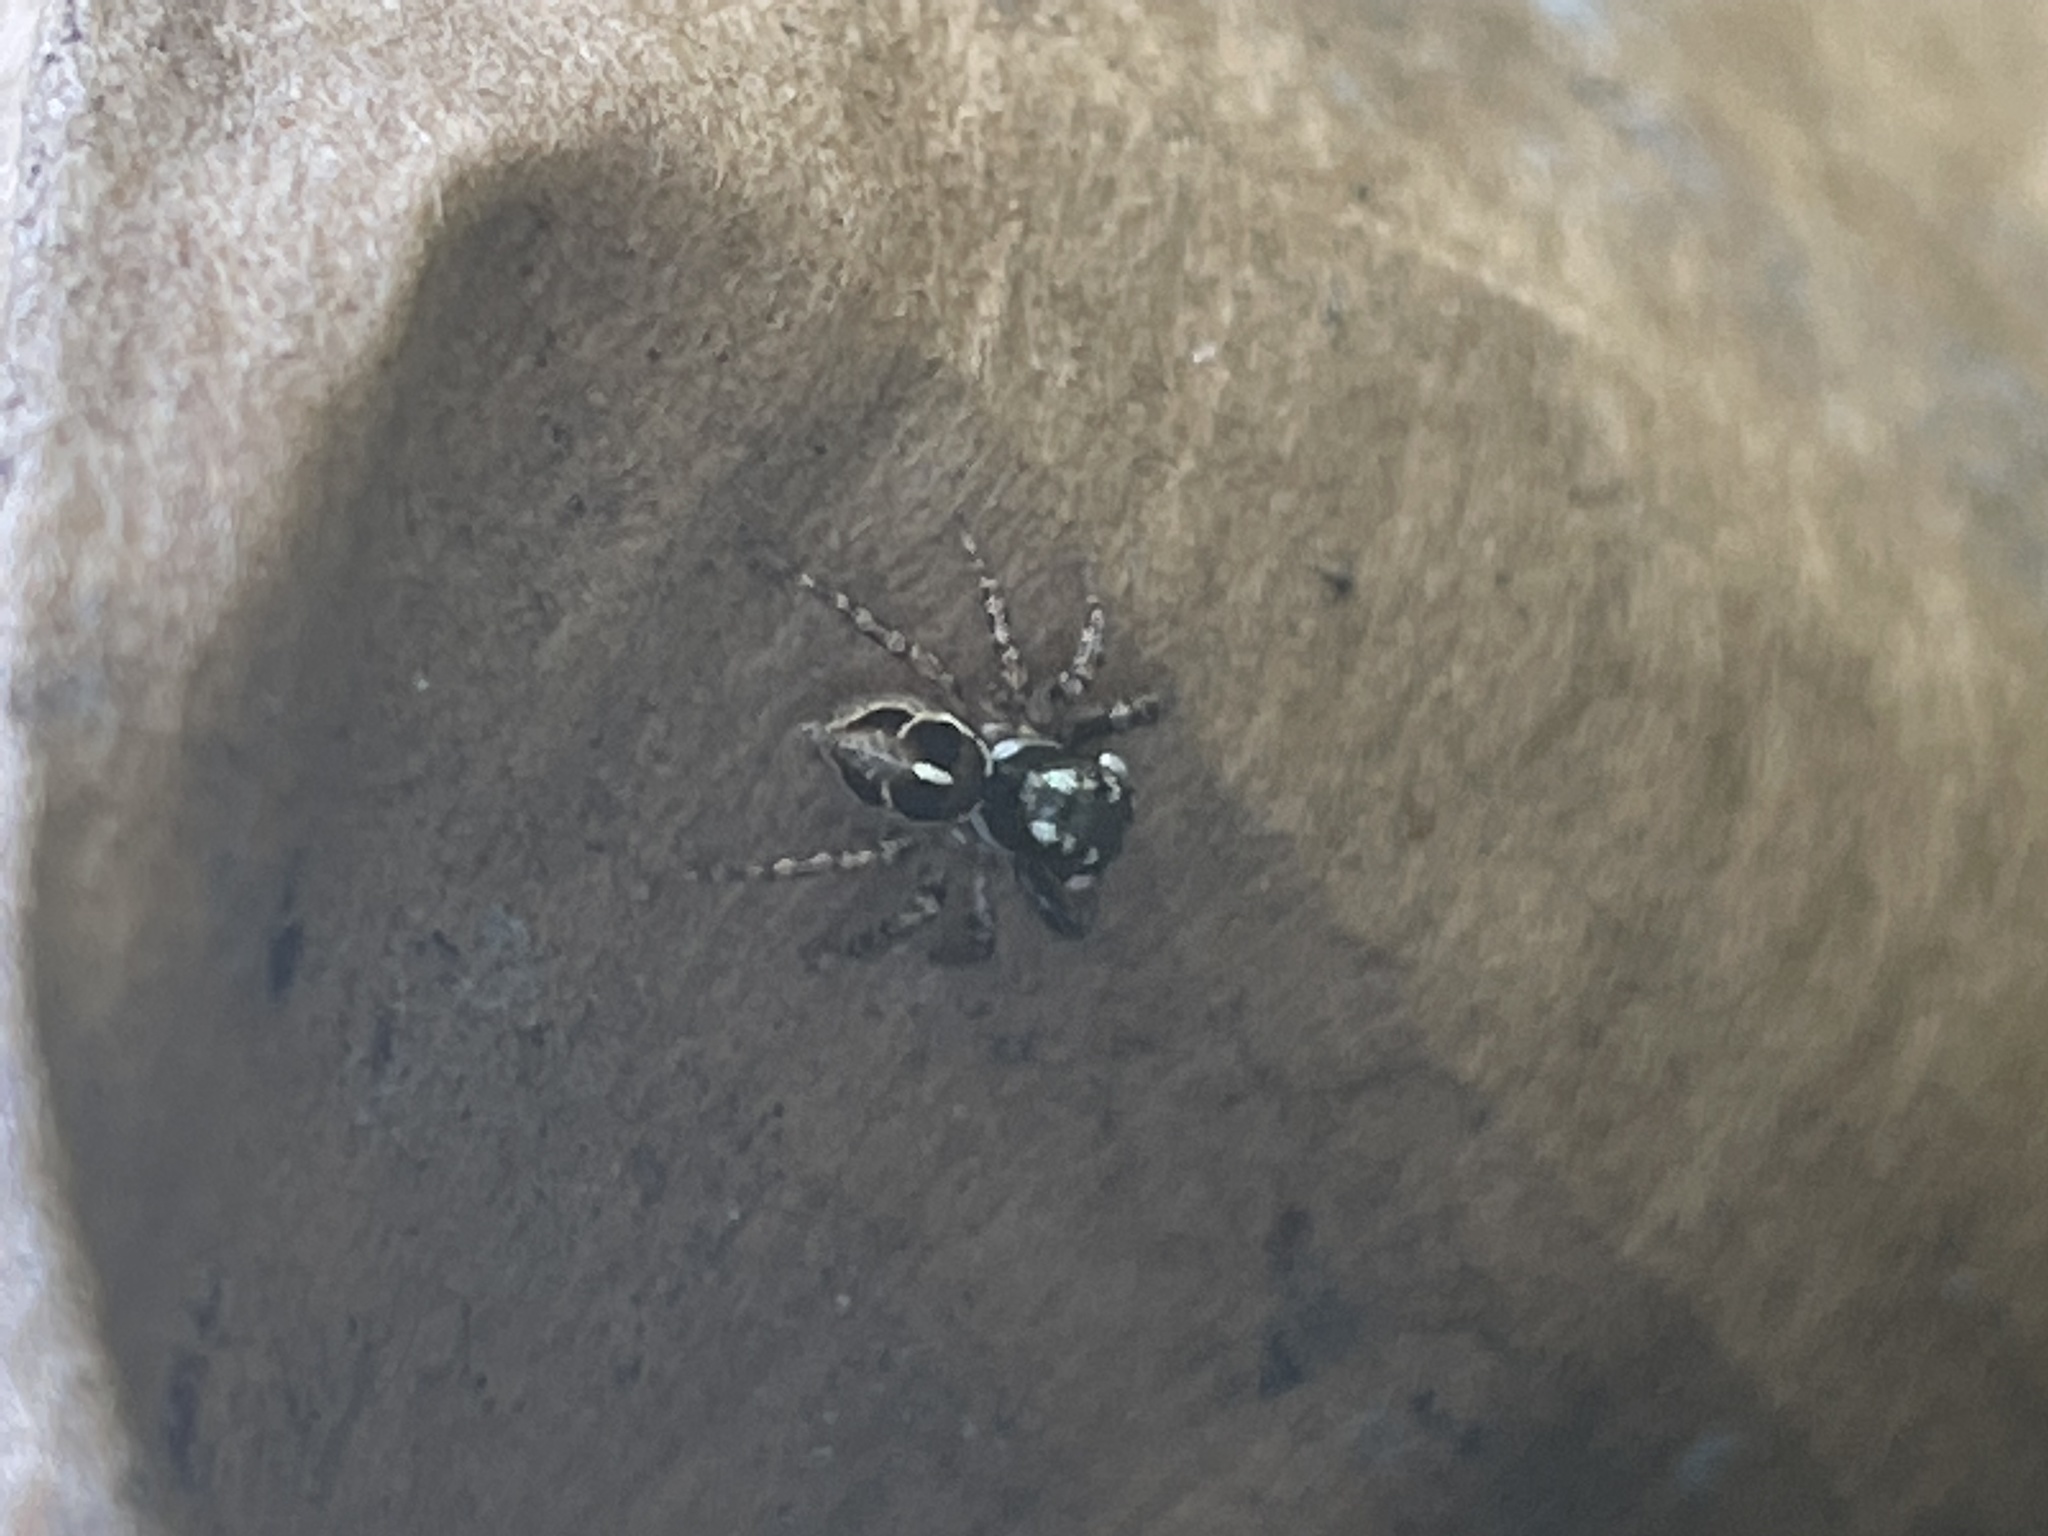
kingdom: Animalia
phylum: Arthropoda
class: Arachnida
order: Araneae
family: Salticidae
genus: Anasaitis
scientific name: Anasaitis canosa
